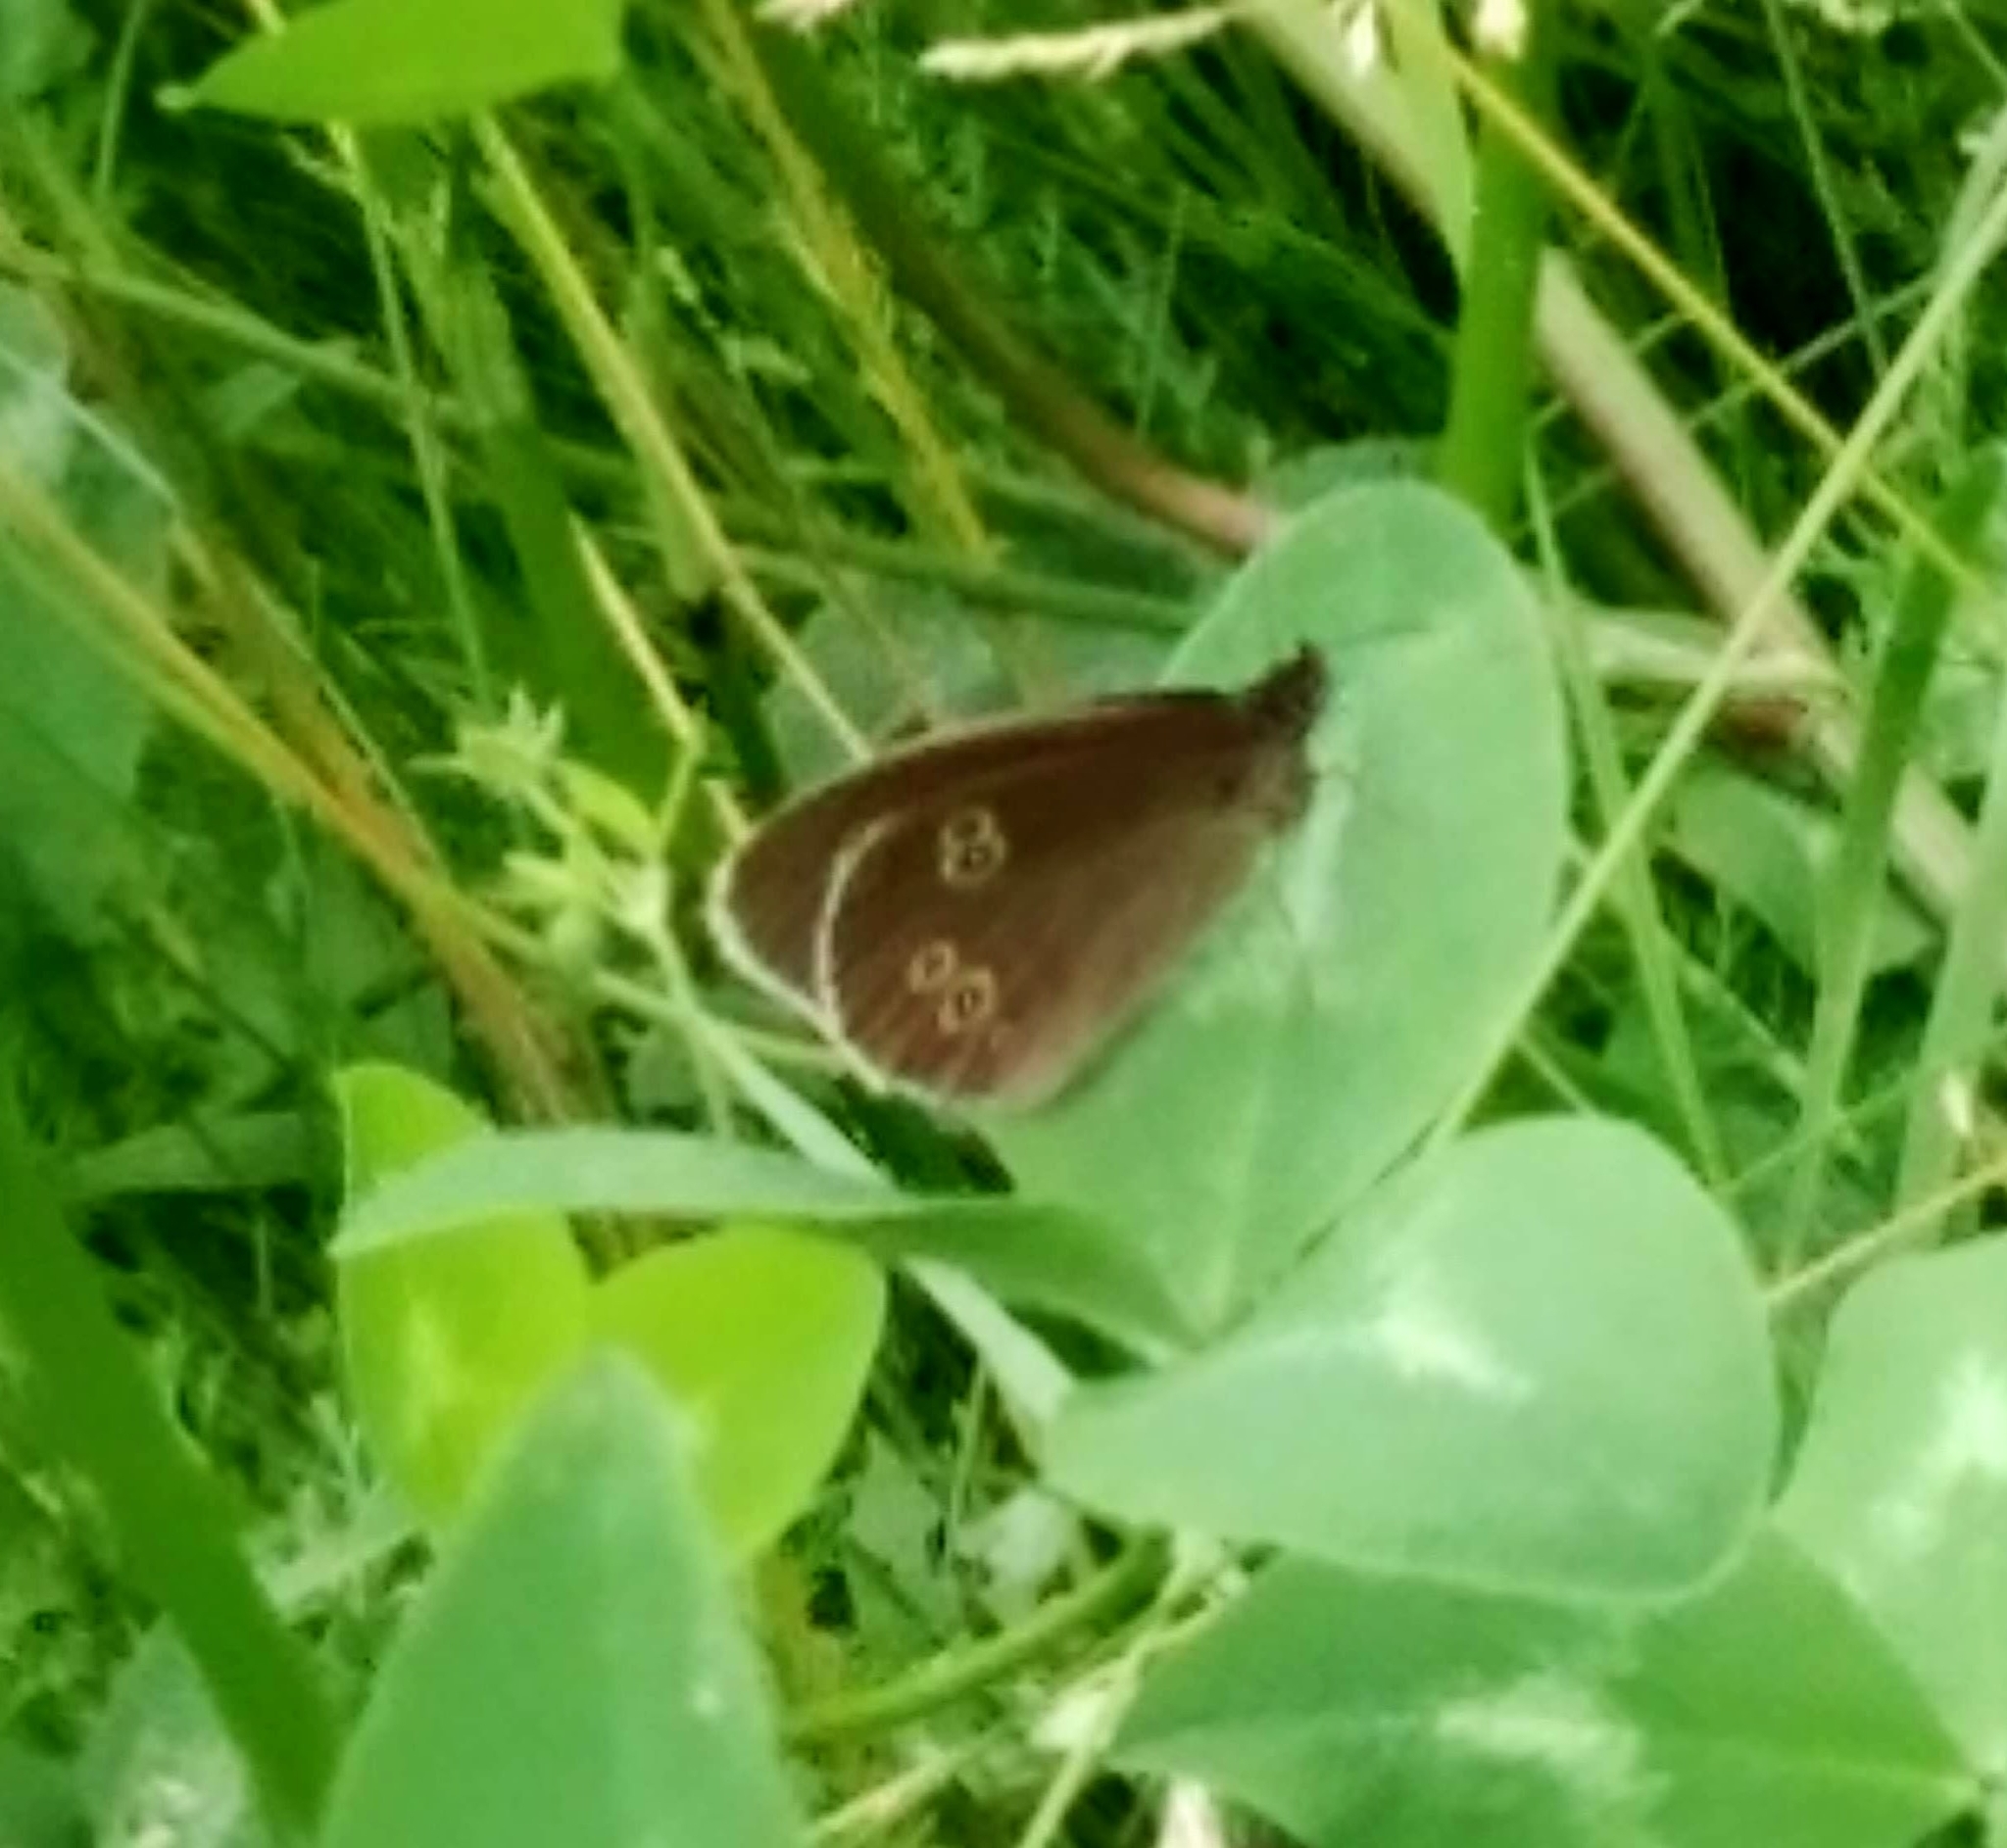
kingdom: Animalia
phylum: Arthropoda
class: Insecta
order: Lepidoptera
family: Nymphalidae
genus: Aphantopus
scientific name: Aphantopus hyperantus
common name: Ringlet
